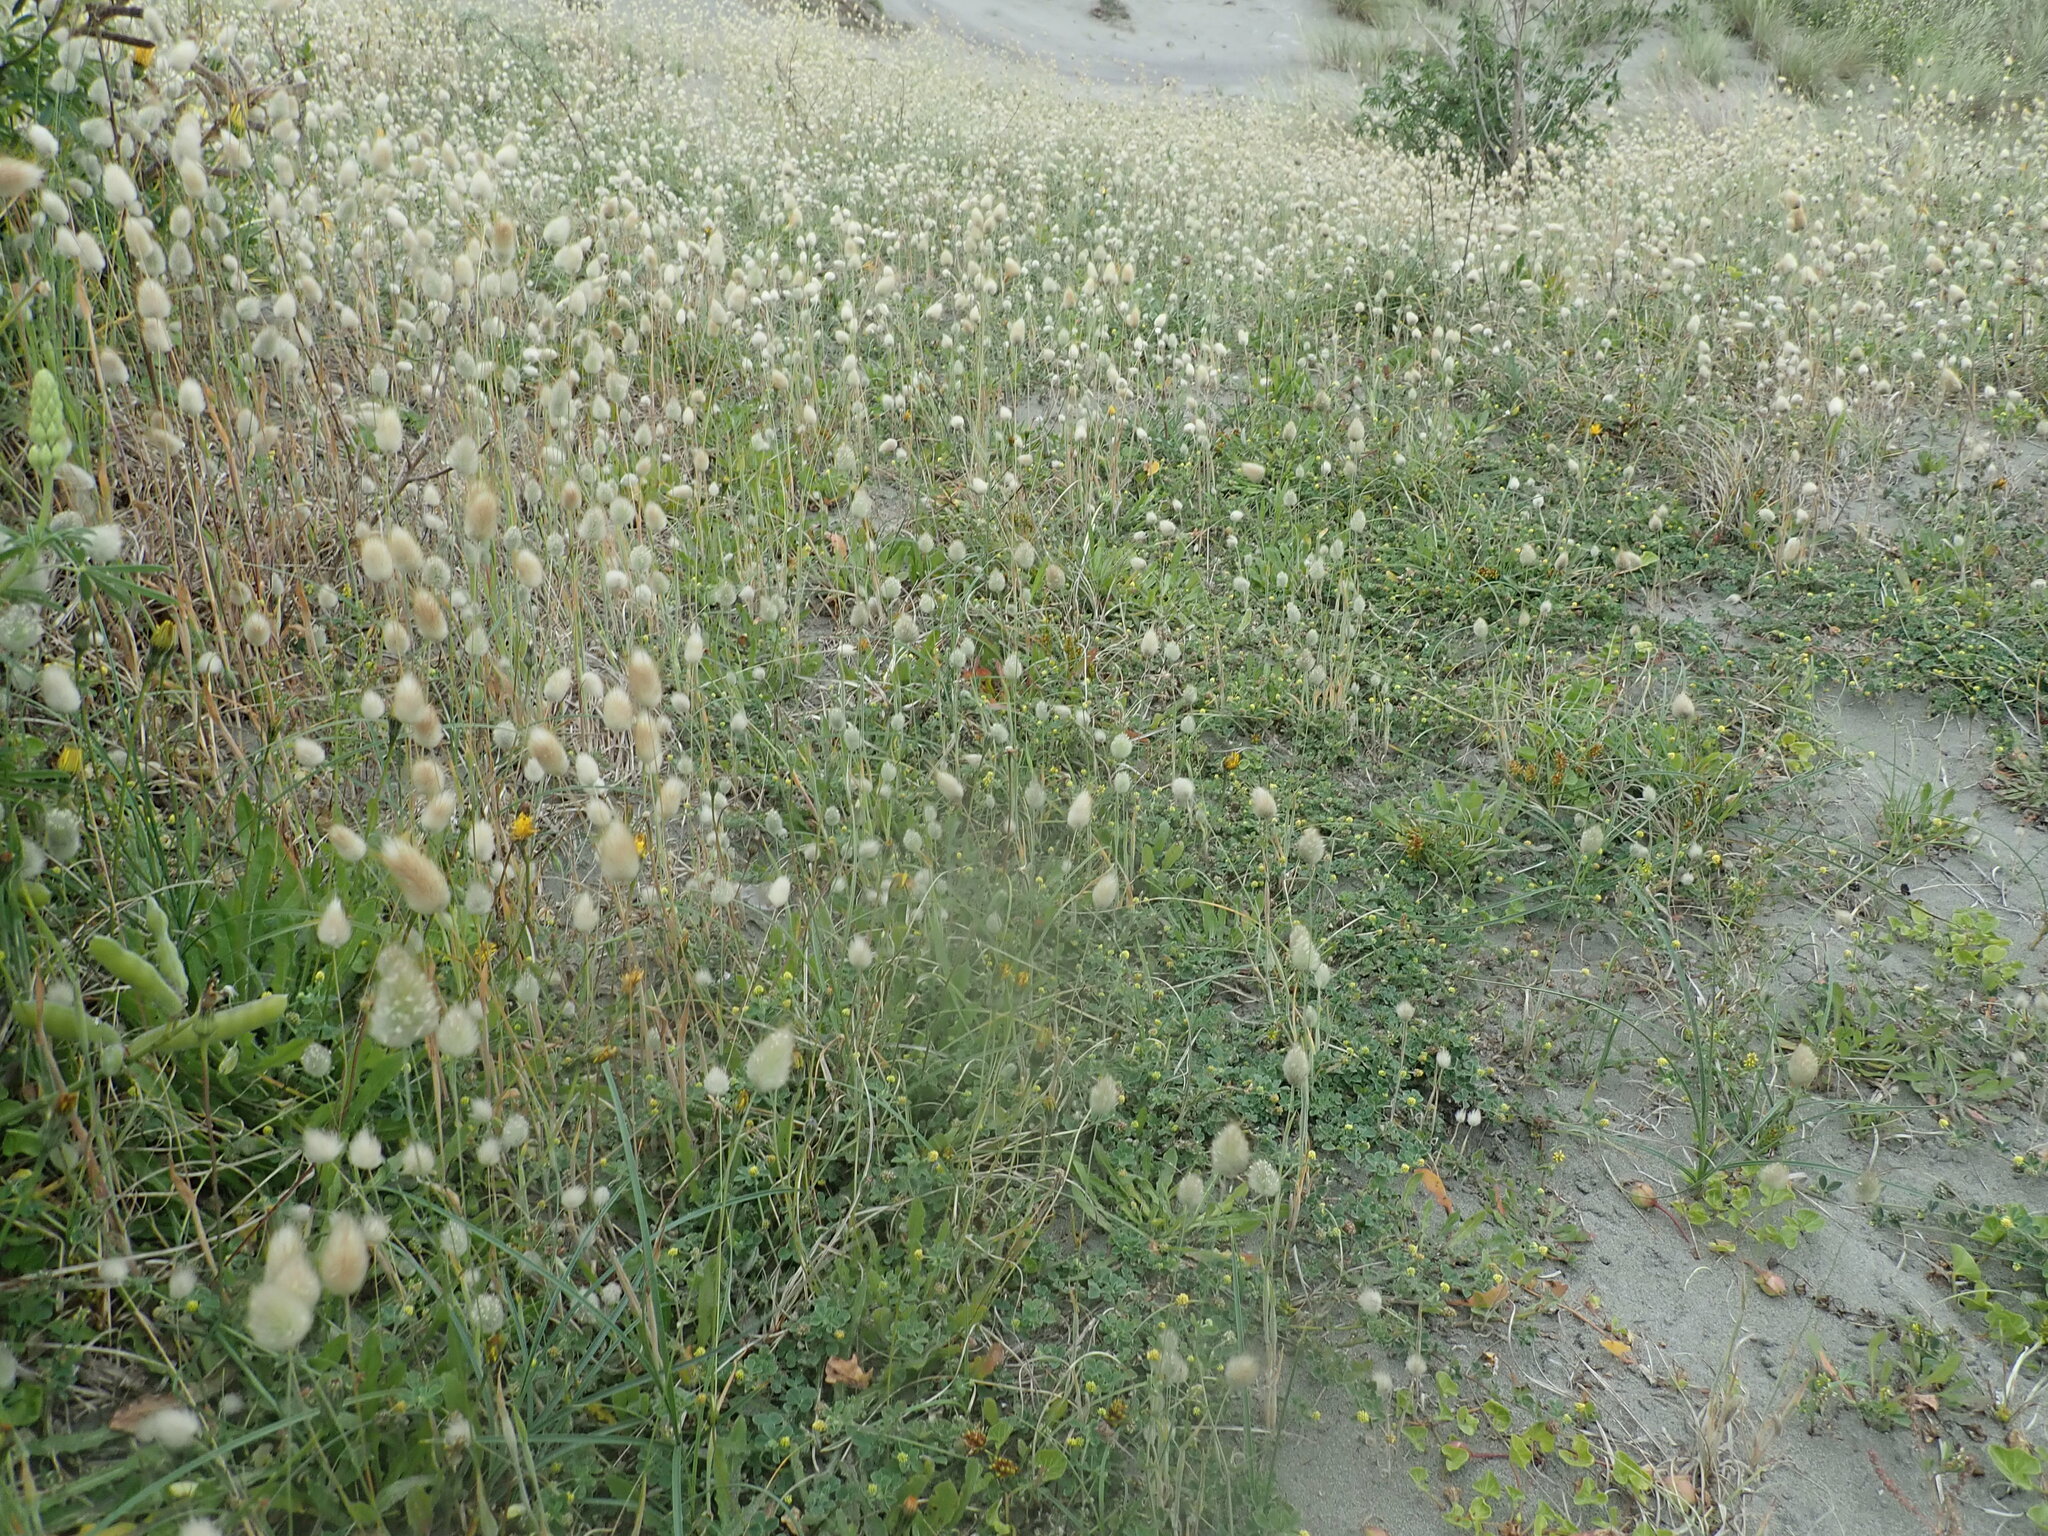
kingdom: Plantae
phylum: Tracheophyta
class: Liliopsida
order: Poales
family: Poaceae
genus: Lagurus
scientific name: Lagurus ovatus
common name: Hare's-tail
